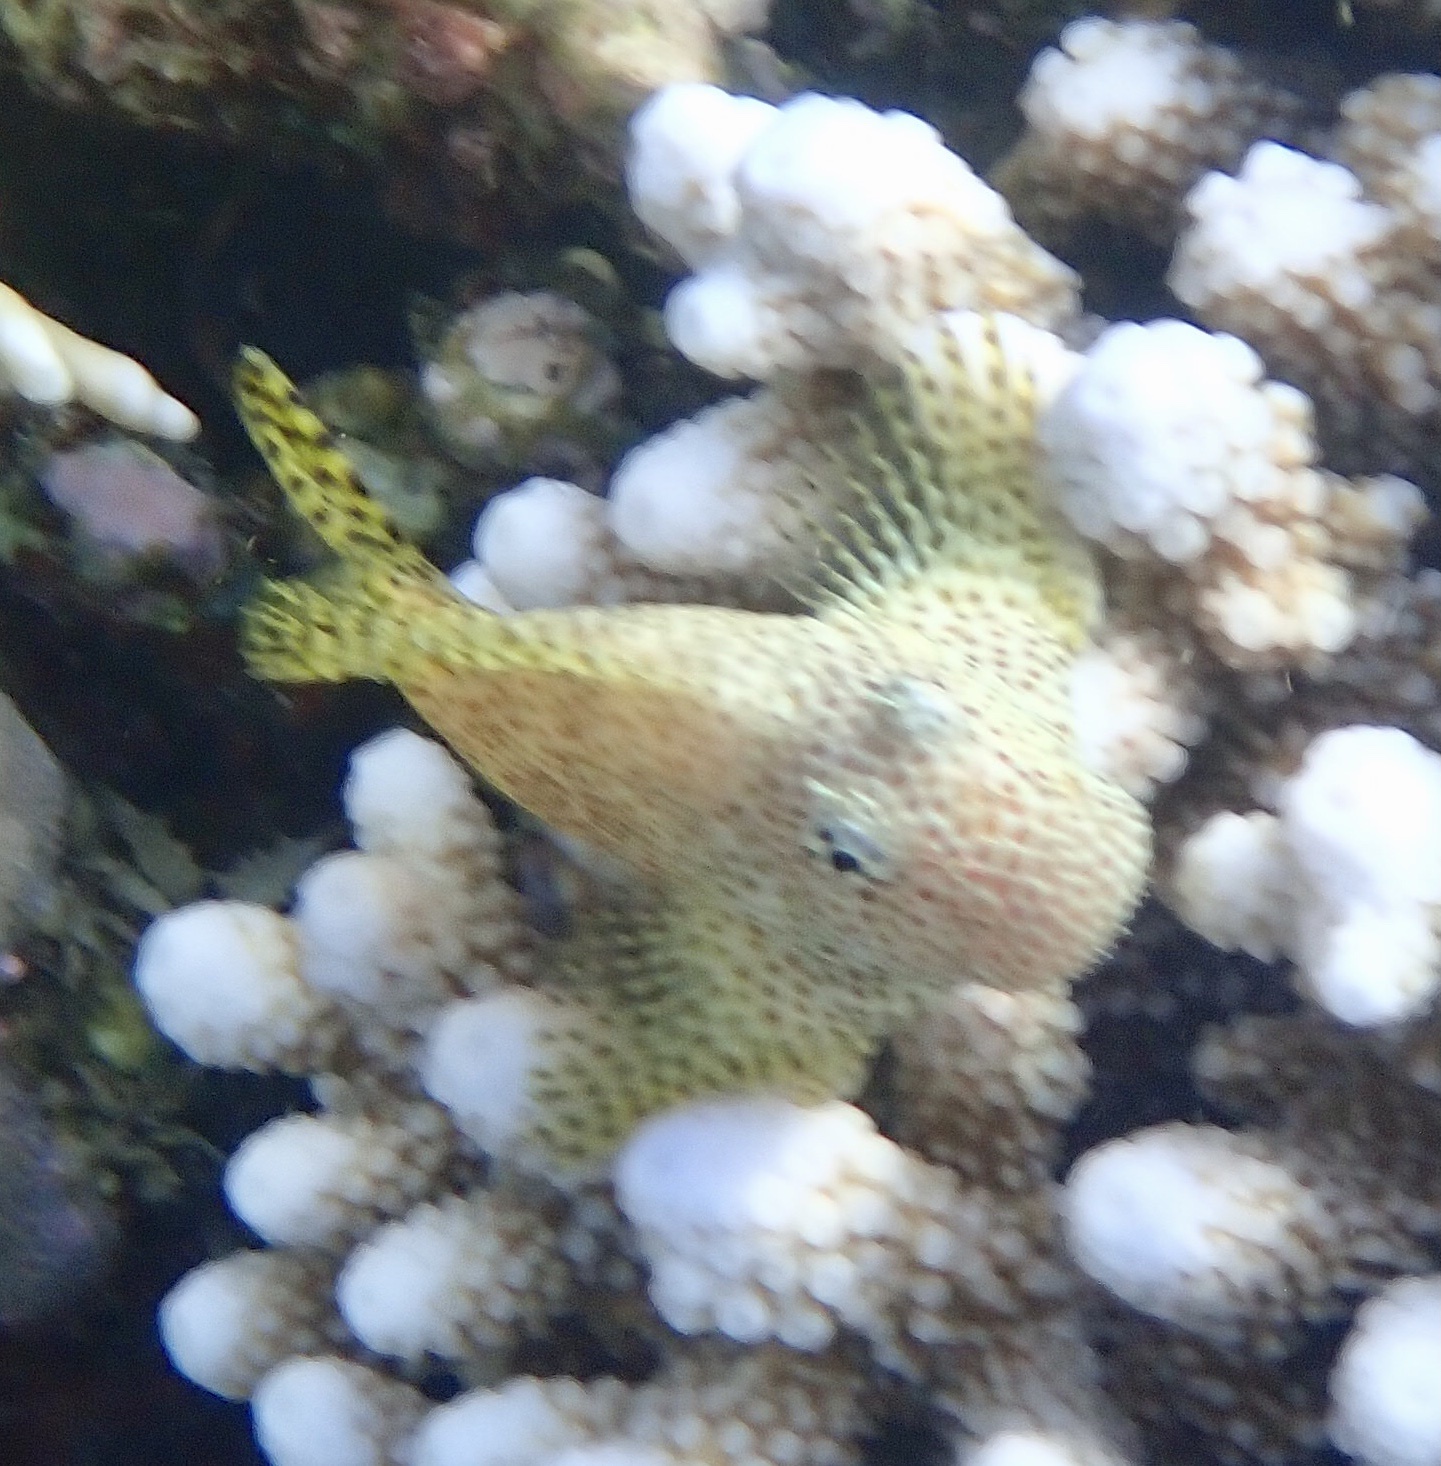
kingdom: Animalia
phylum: Chordata
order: Perciformes
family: Blenniidae
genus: Exallias
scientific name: Exallias brevis
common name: Leopard blenny
